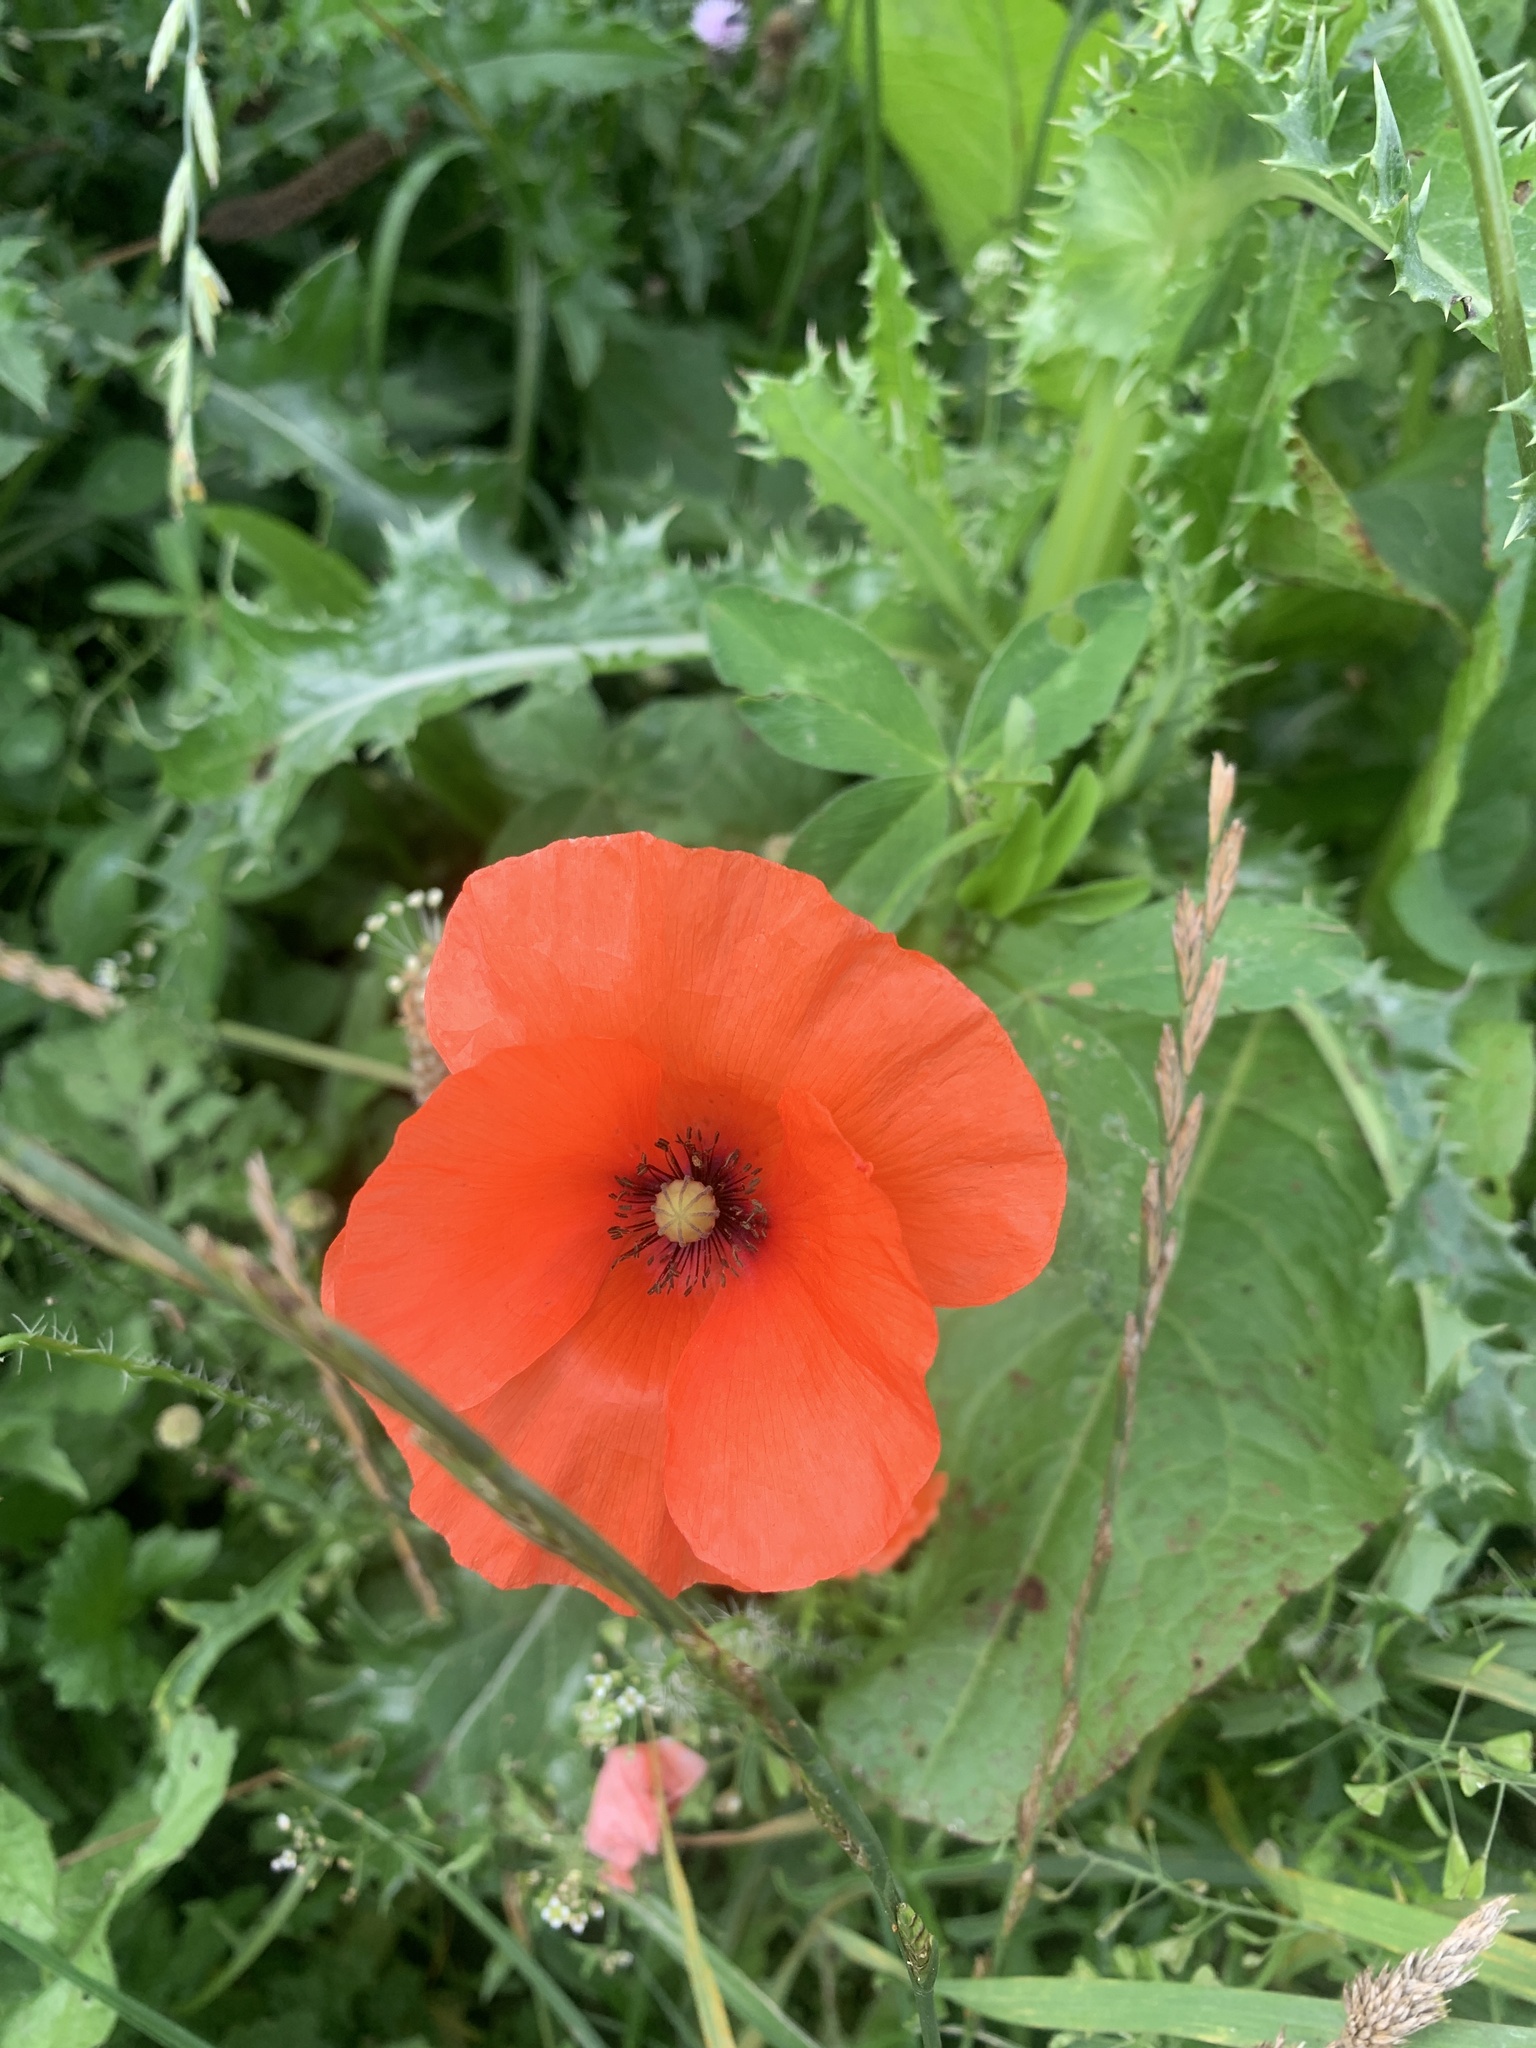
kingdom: Plantae
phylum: Tracheophyta
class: Magnoliopsida
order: Ranunculales
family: Papaveraceae
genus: Papaver
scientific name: Papaver rhoeas
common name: Corn poppy
